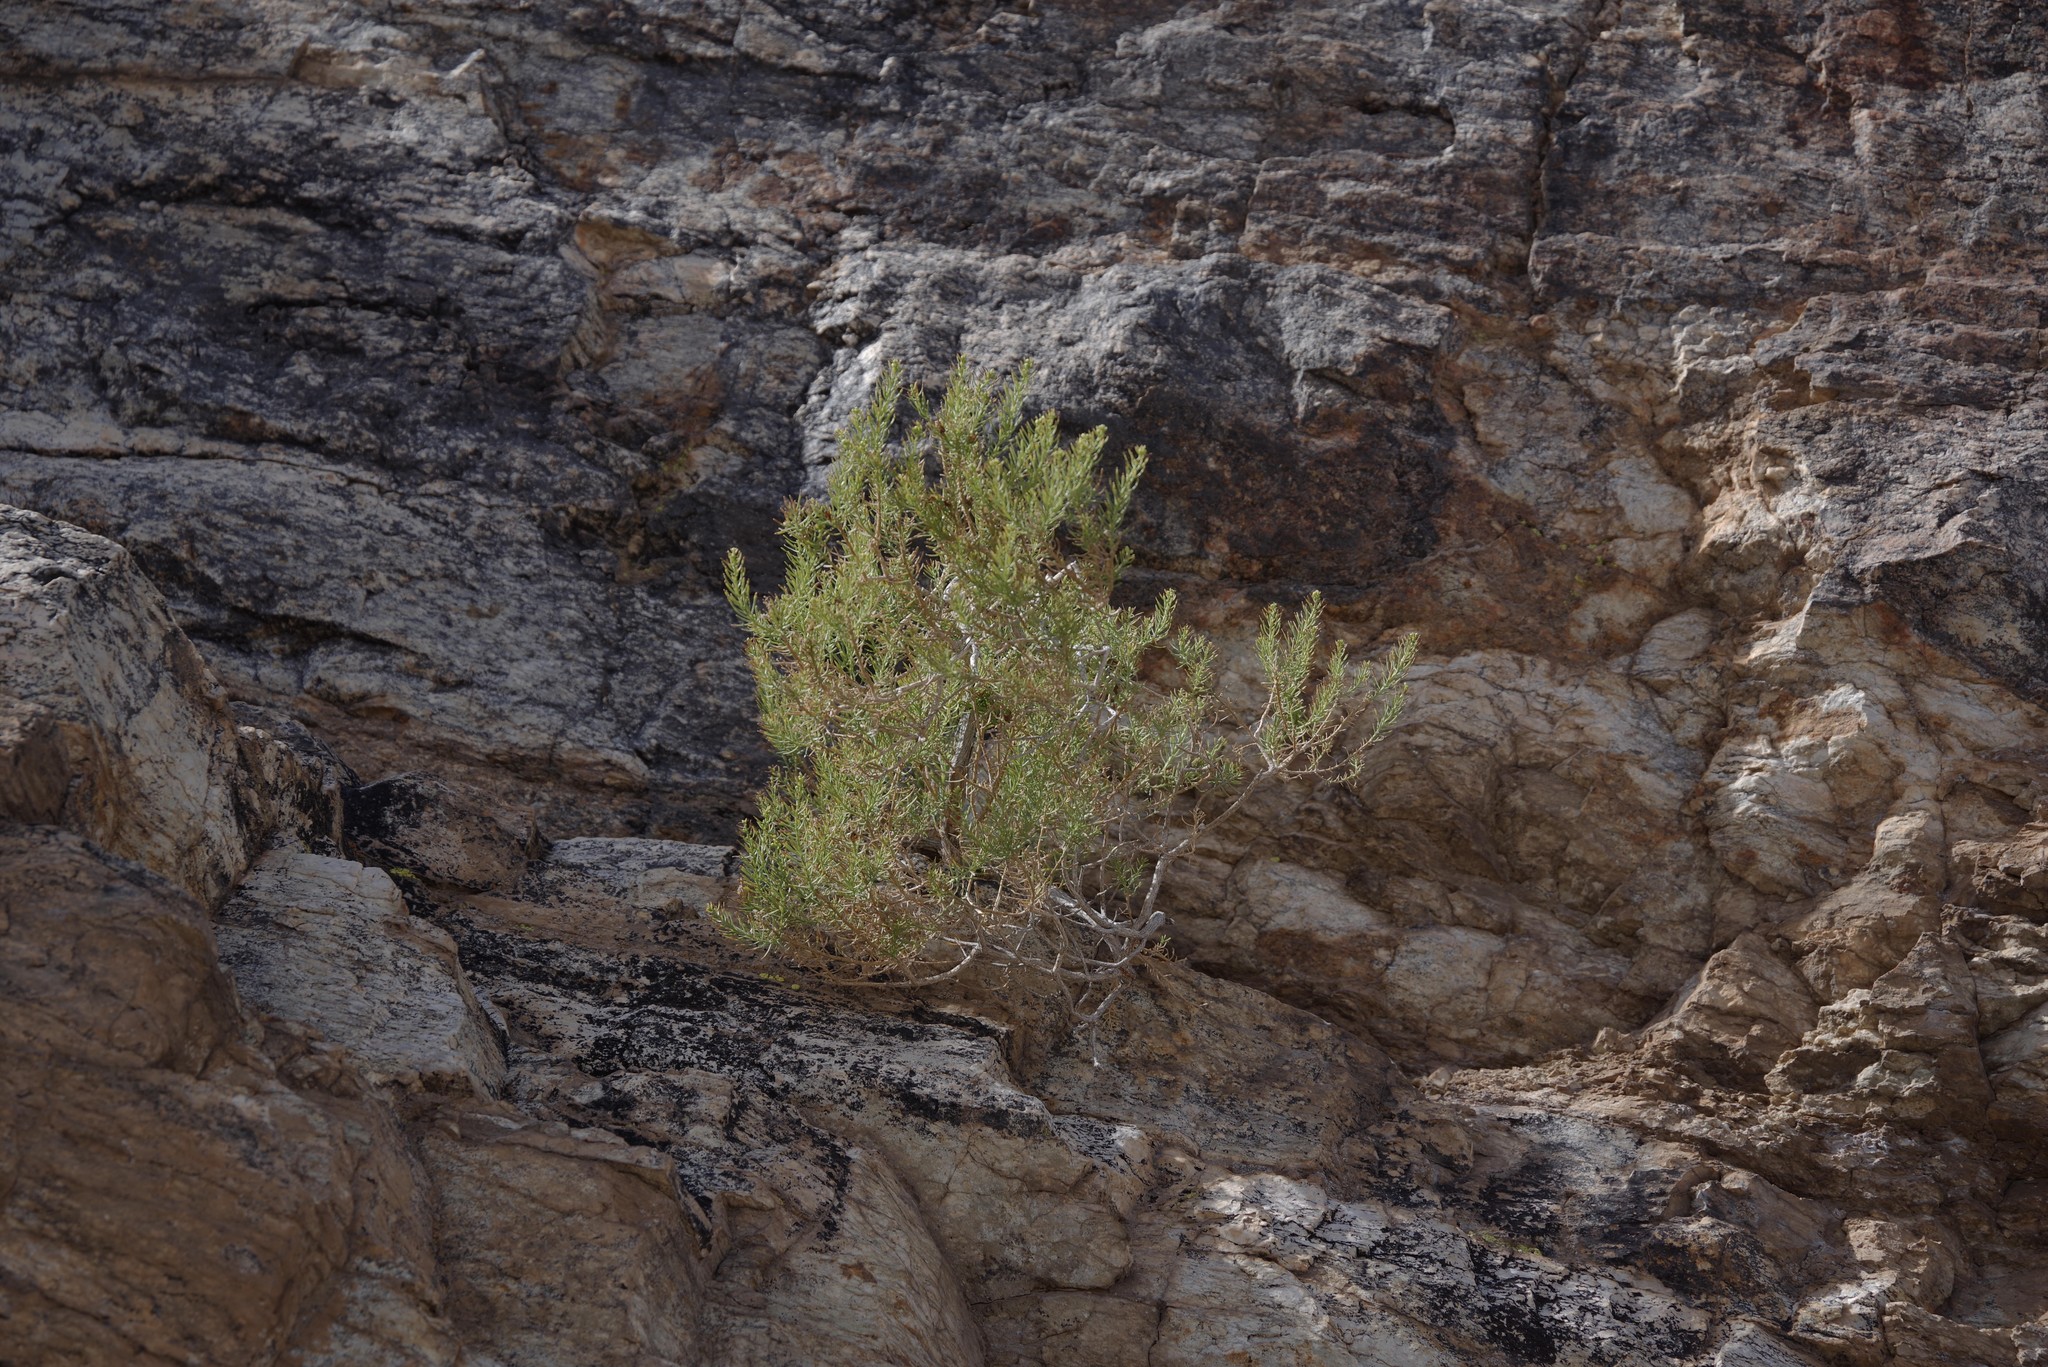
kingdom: Plantae
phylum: Tracheophyta
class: Magnoliopsida
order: Asterales
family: Asteraceae
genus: Ericameria
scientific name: Ericameria laricifolia
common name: Turpentine-bush
